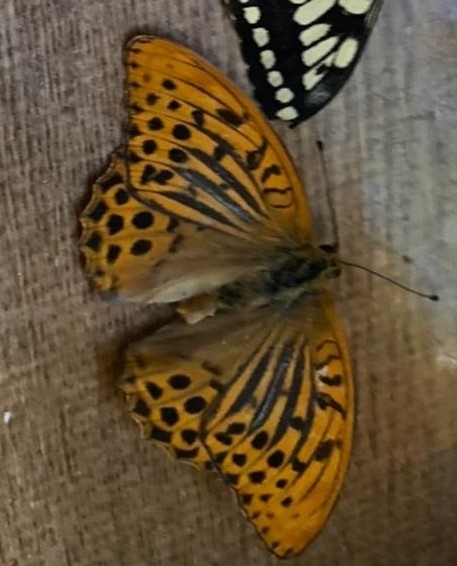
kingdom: Animalia
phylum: Arthropoda
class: Insecta
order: Lepidoptera
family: Nymphalidae
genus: Argynnis
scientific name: Argynnis paphia
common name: Silver-washed fritillary
